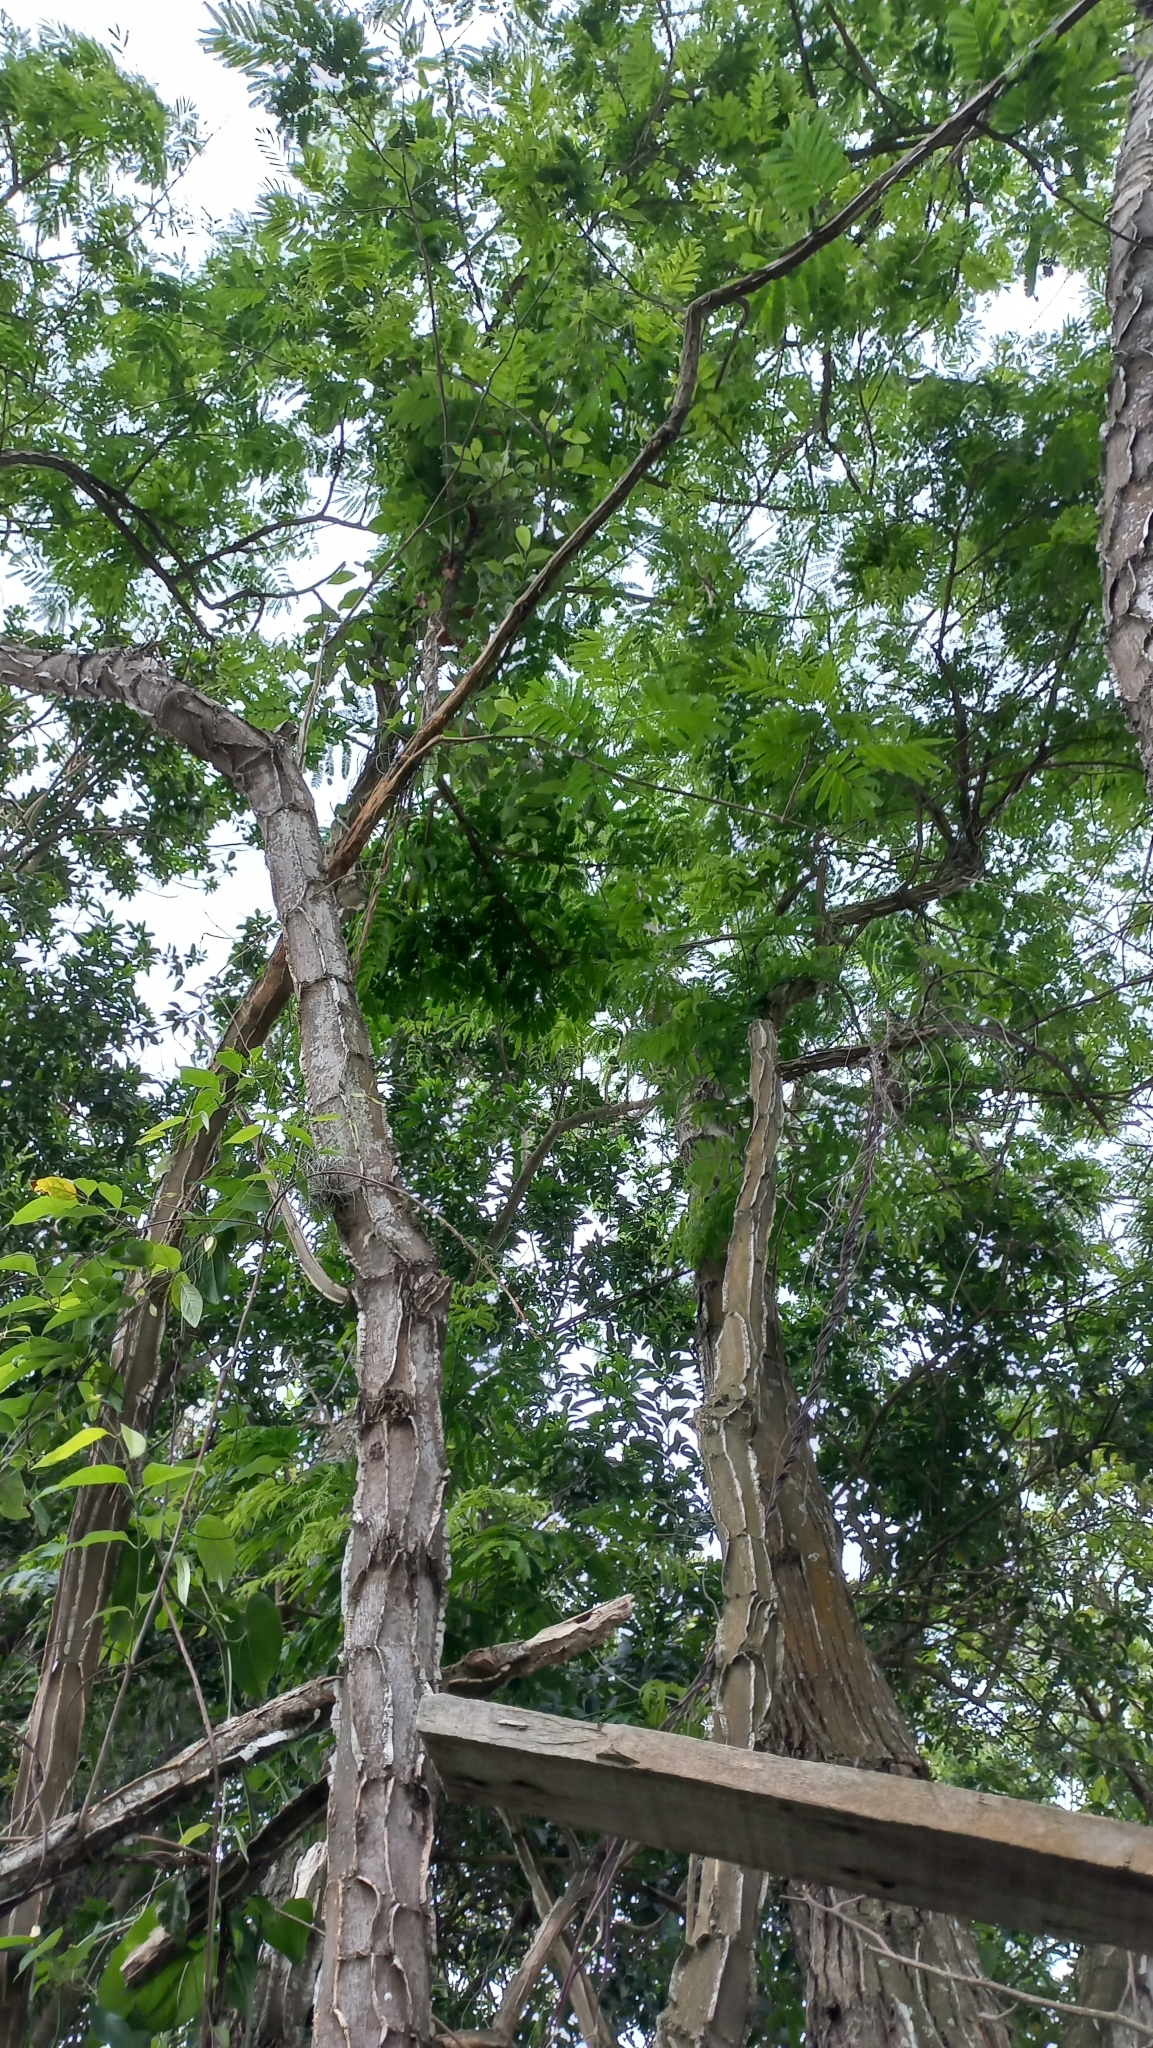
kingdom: Plantae
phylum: Tracheophyta
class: Magnoliopsida
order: Fabales
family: Fabaceae
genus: Piptadenia
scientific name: Piptadenia gonoacantha
